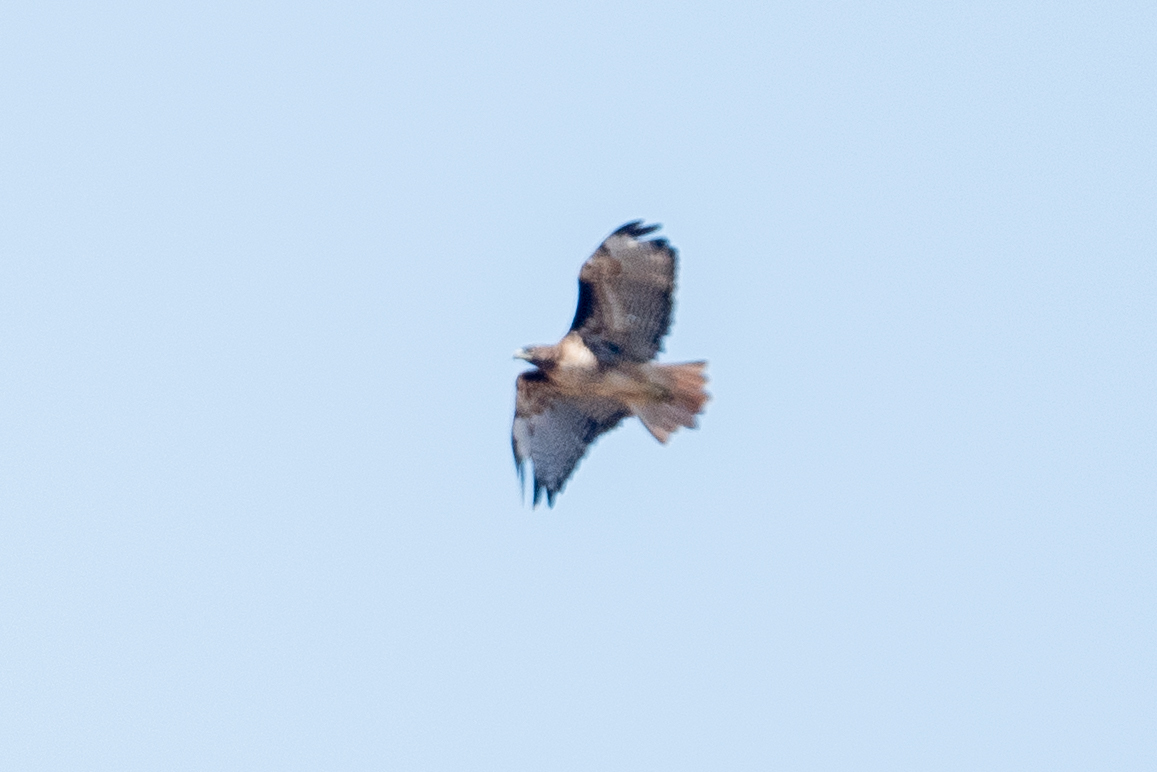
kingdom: Animalia
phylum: Chordata
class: Aves
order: Accipitriformes
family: Accipitridae
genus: Buteo
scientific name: Buteo jamaicensis
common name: Red-tailed hawk
